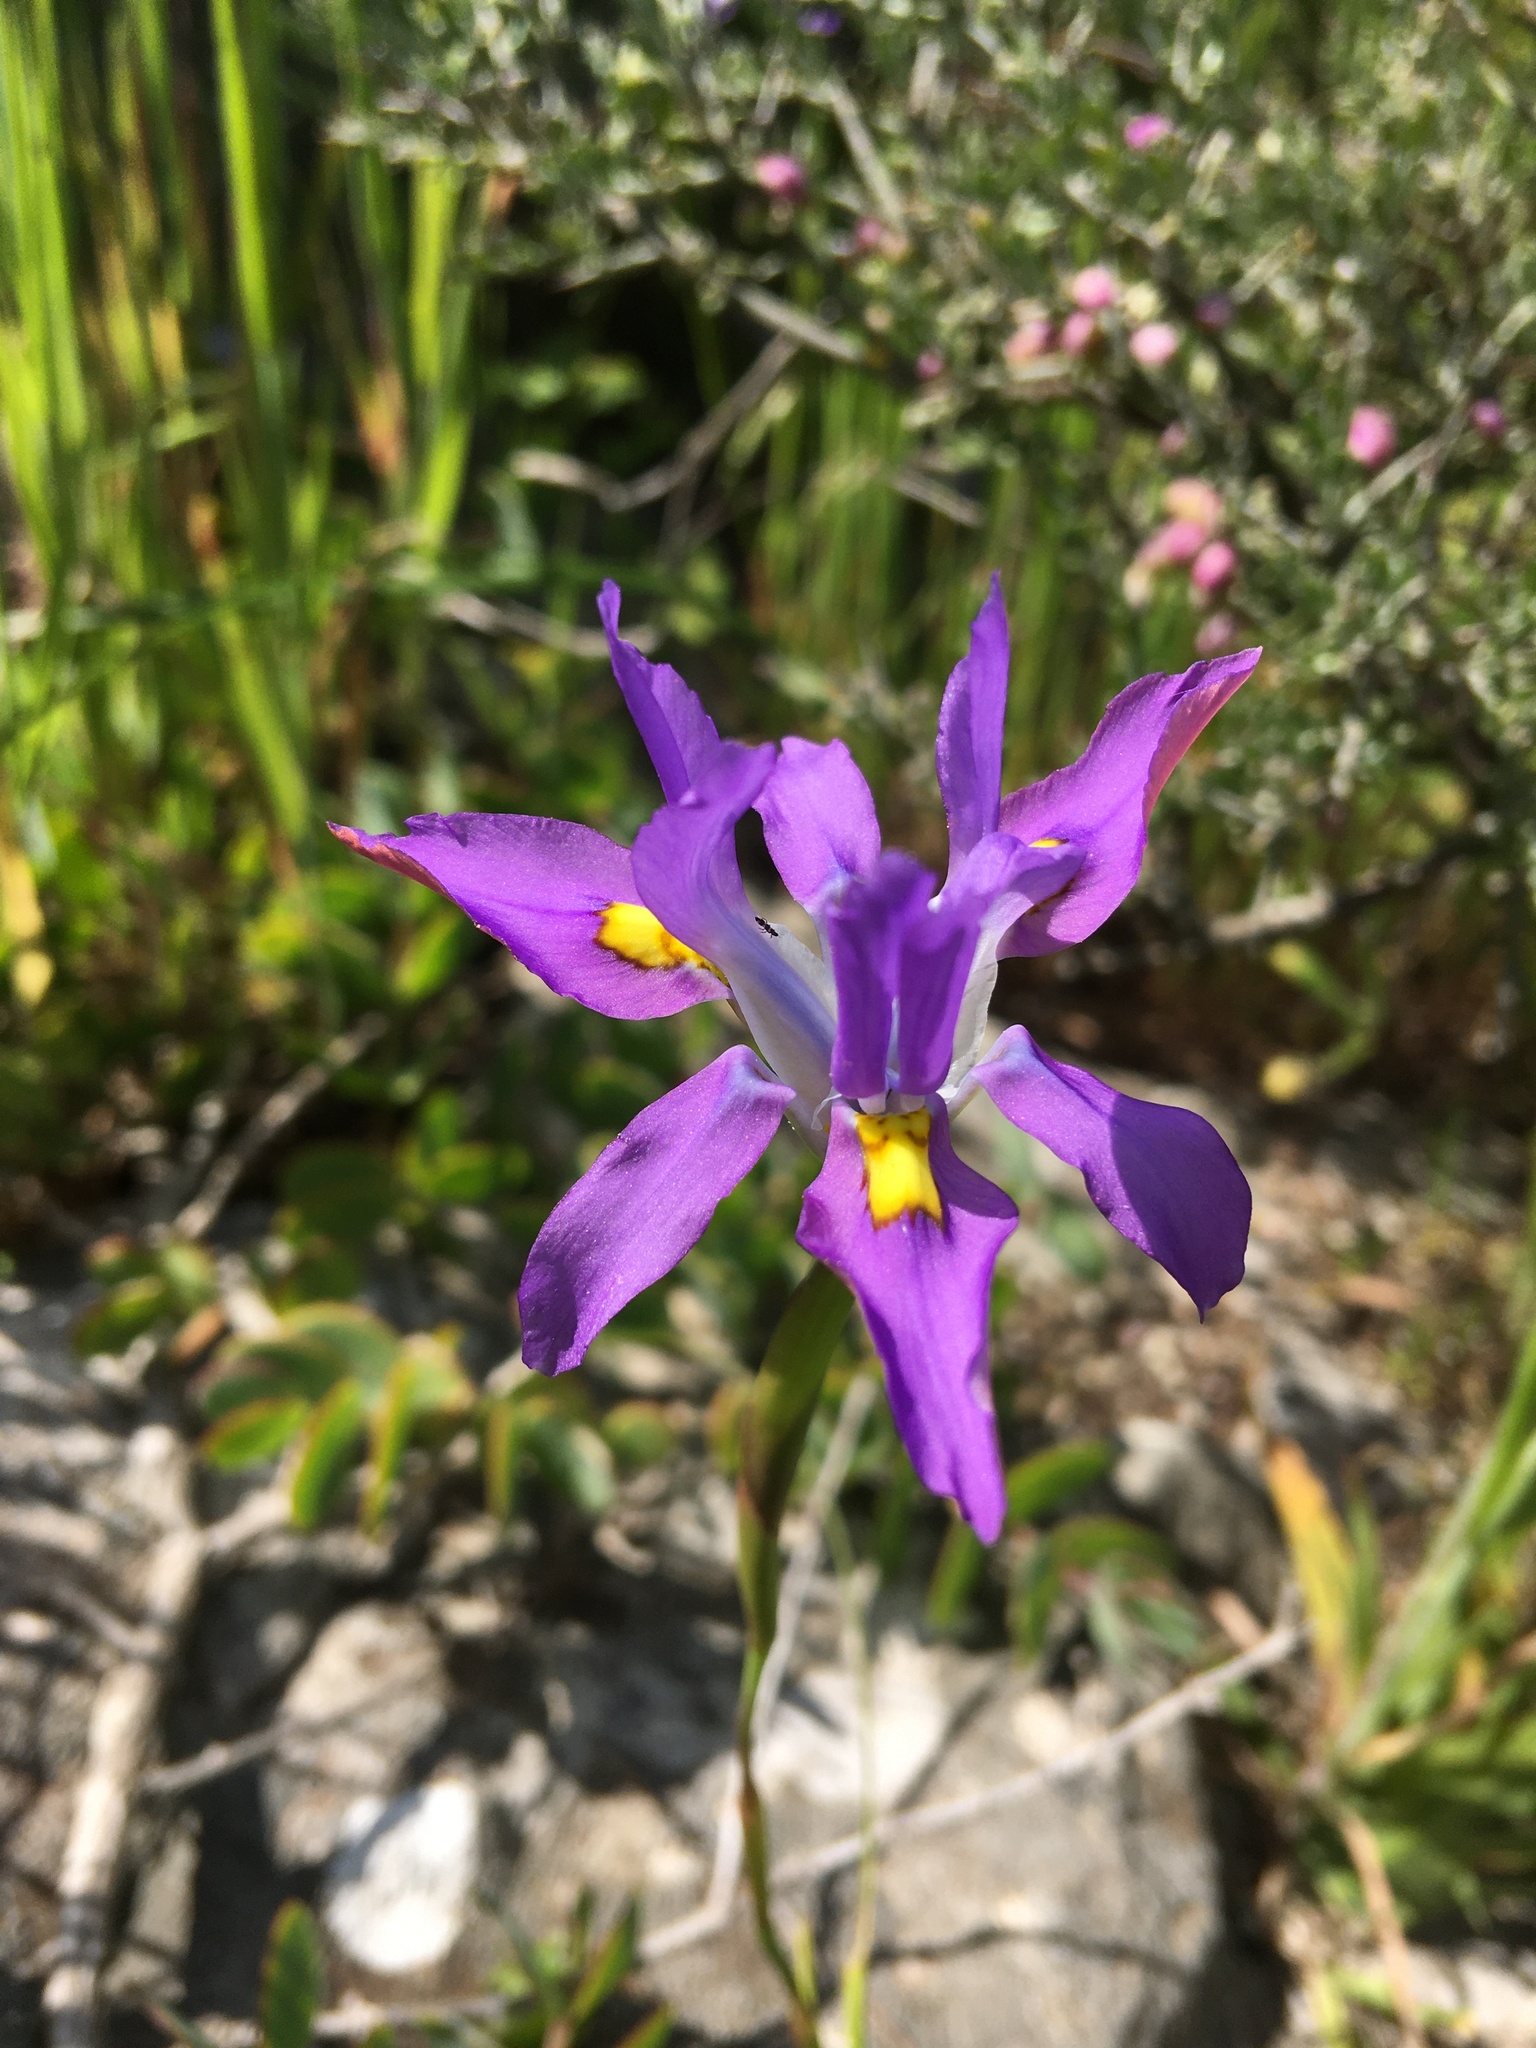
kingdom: Plantae
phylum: Tracheophyta
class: Liliopsida
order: Asparagales
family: Iridaceae
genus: Moraea
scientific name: Moraea fugax
